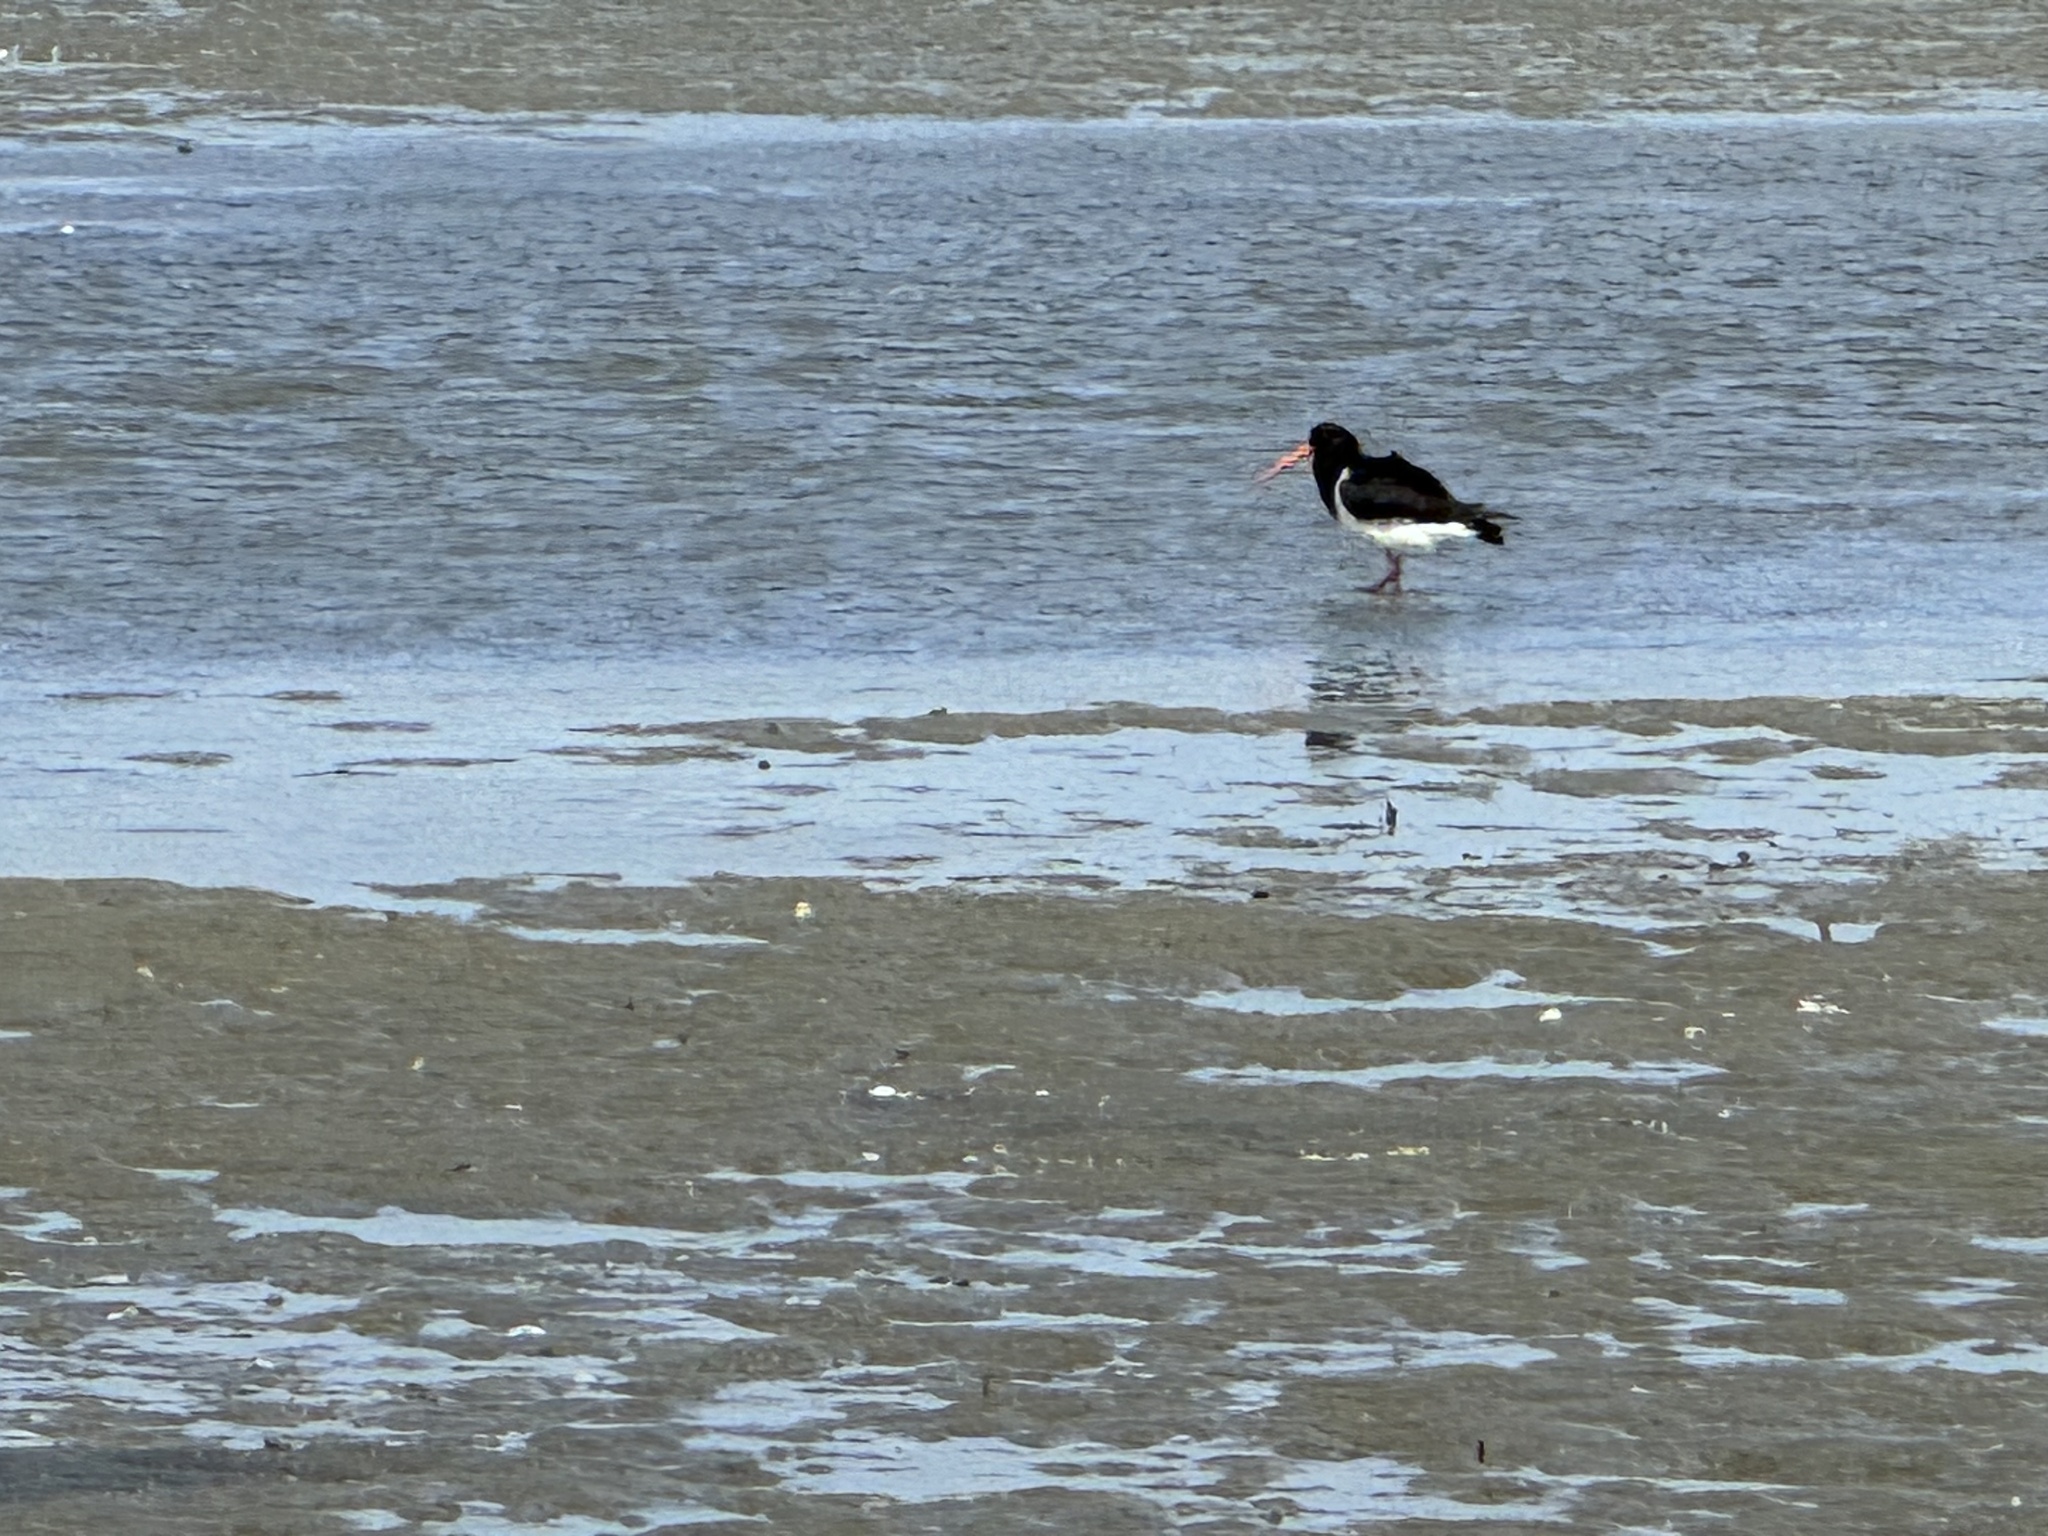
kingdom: Animalia
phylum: Chordata
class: Aves
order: Charadriiformes
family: Haematopodidae
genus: Haematopus
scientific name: Haematopus finschi
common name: South island oystercatcher
